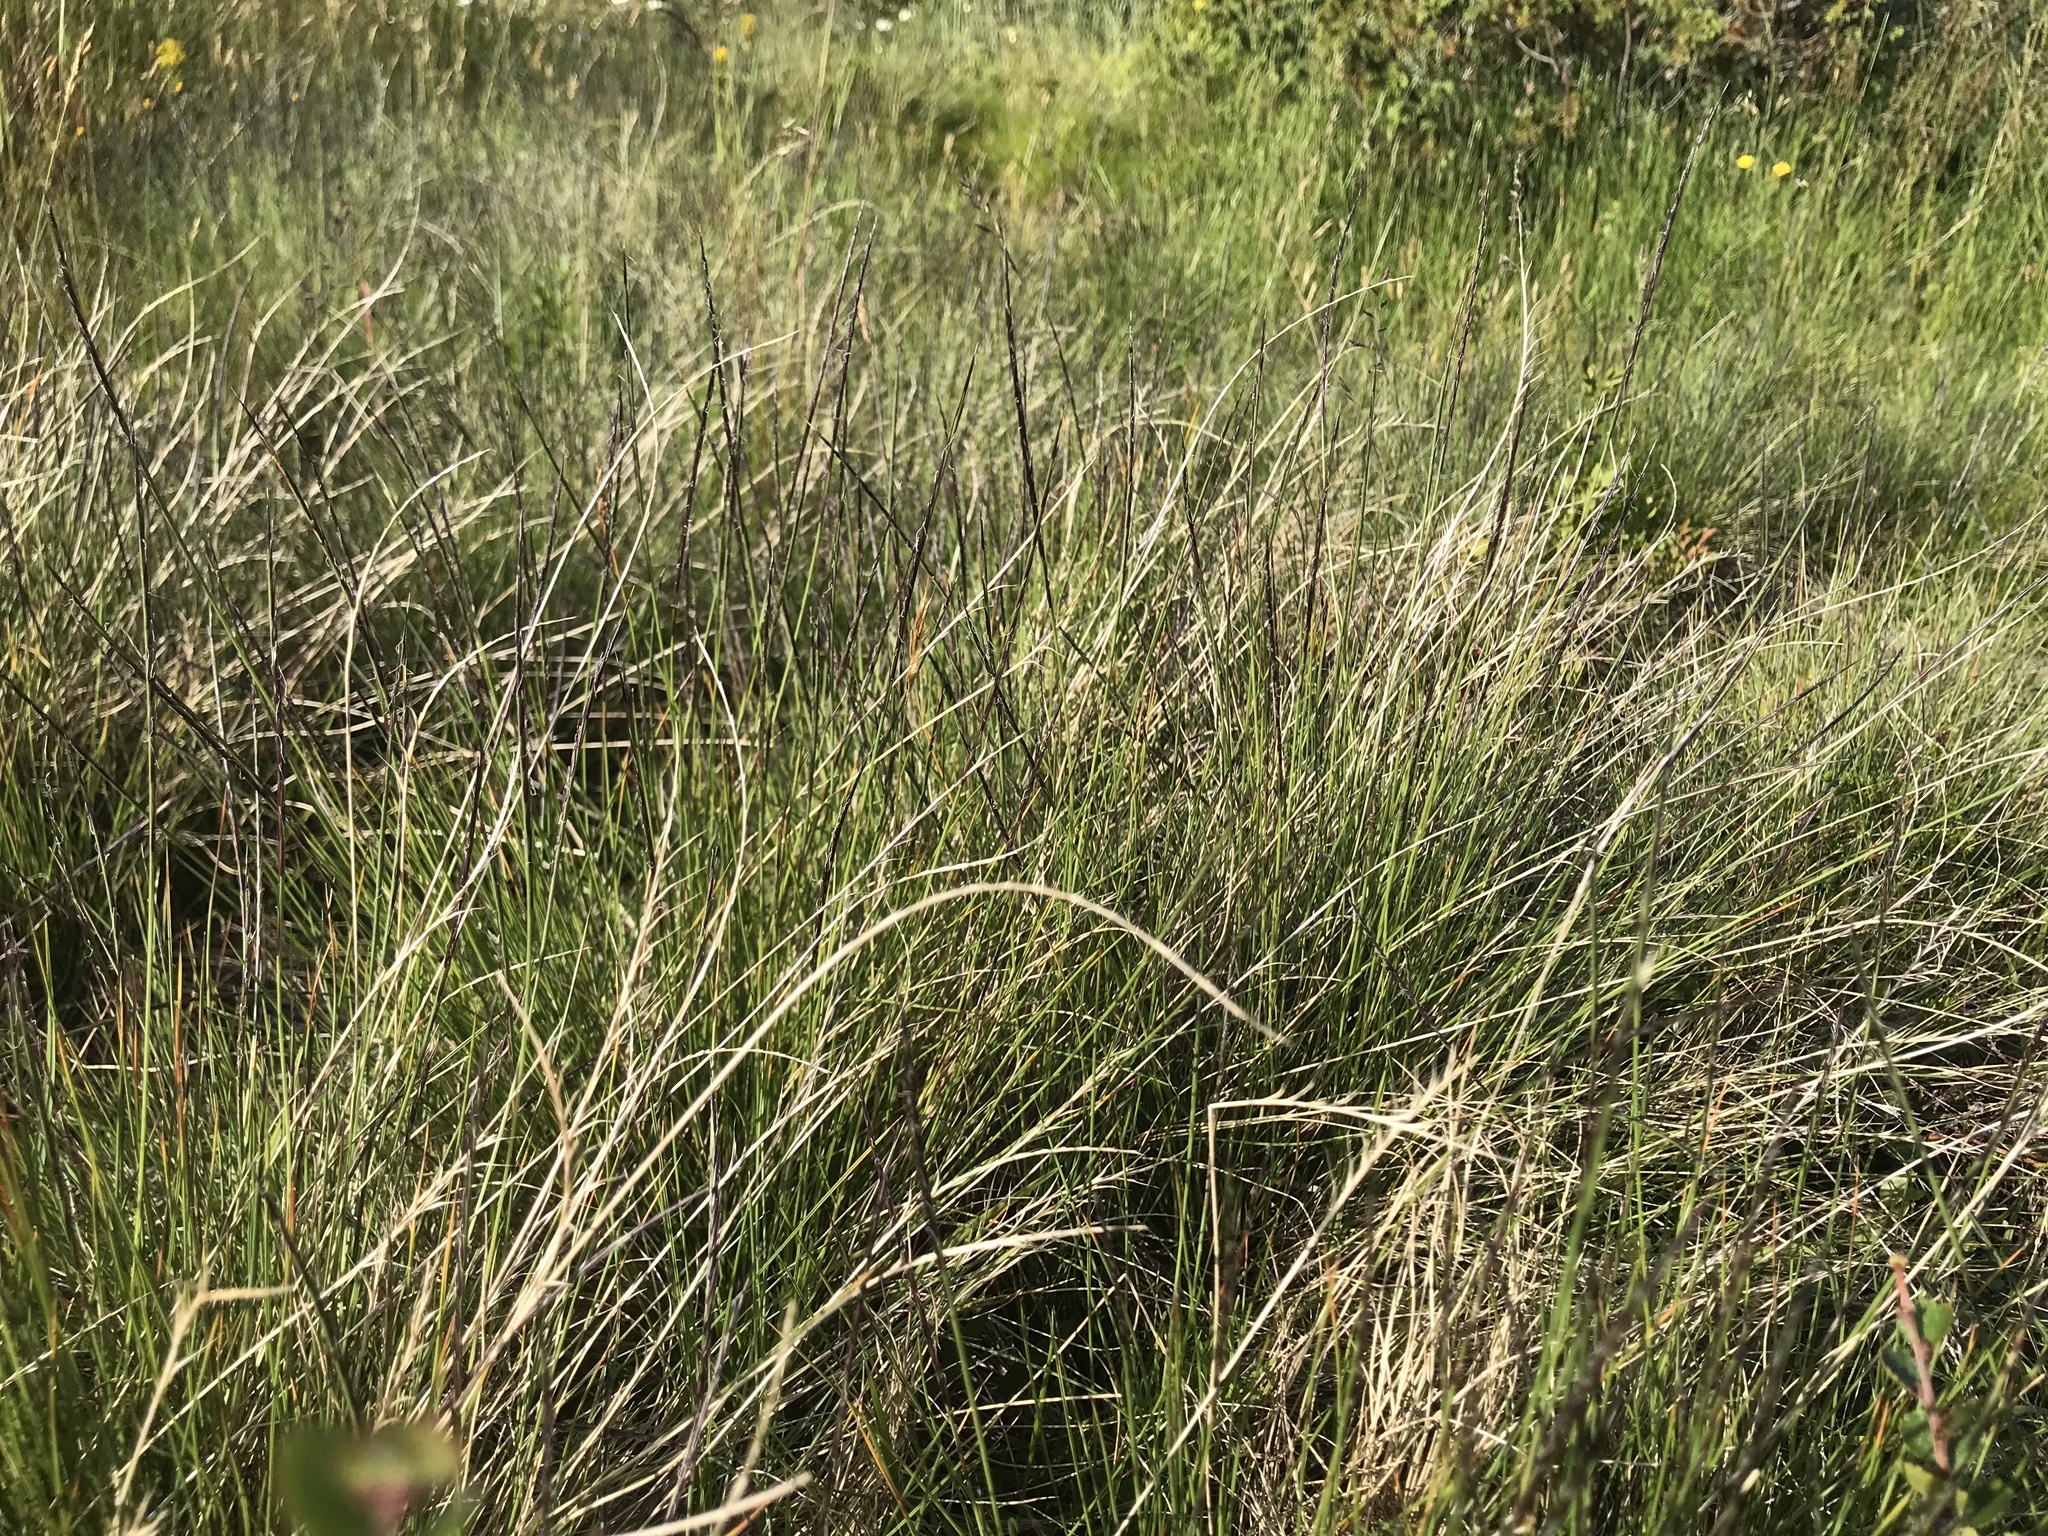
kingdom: Plantae
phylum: Tracheophyta
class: Liliopsida
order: Poales
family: Poaceae
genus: Nardus
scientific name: Nardus stricta
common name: Mat-grass
